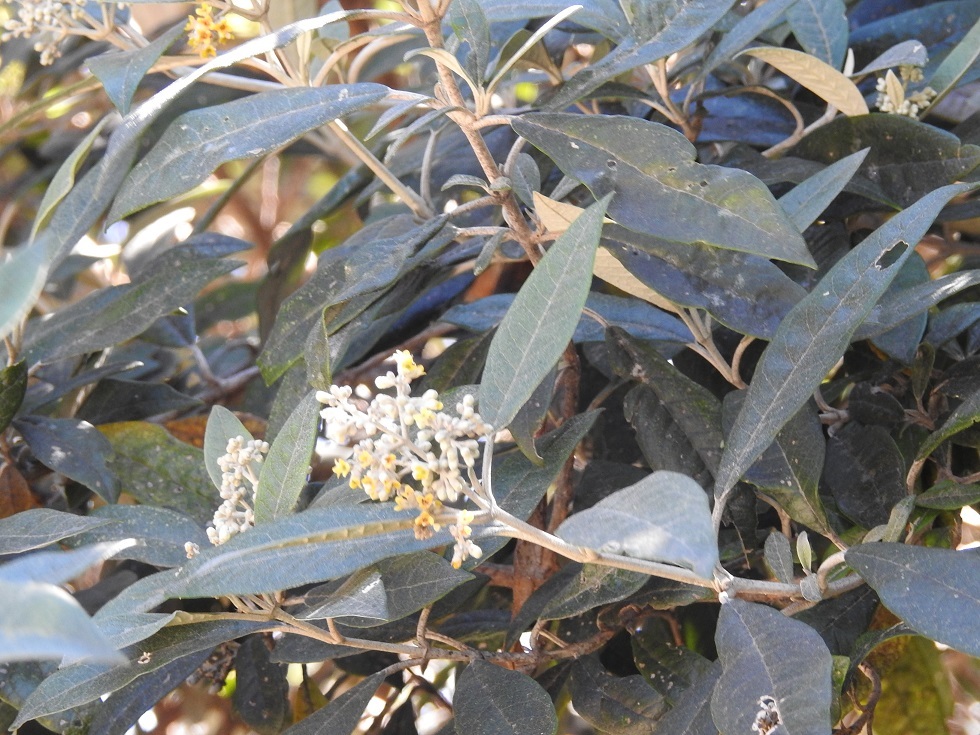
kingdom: Plantae
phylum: Tracheophyta
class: Magnoliopsida
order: Lamiales
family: Scrophulariaceae
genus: Buddleja
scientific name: Buddleja nitida
